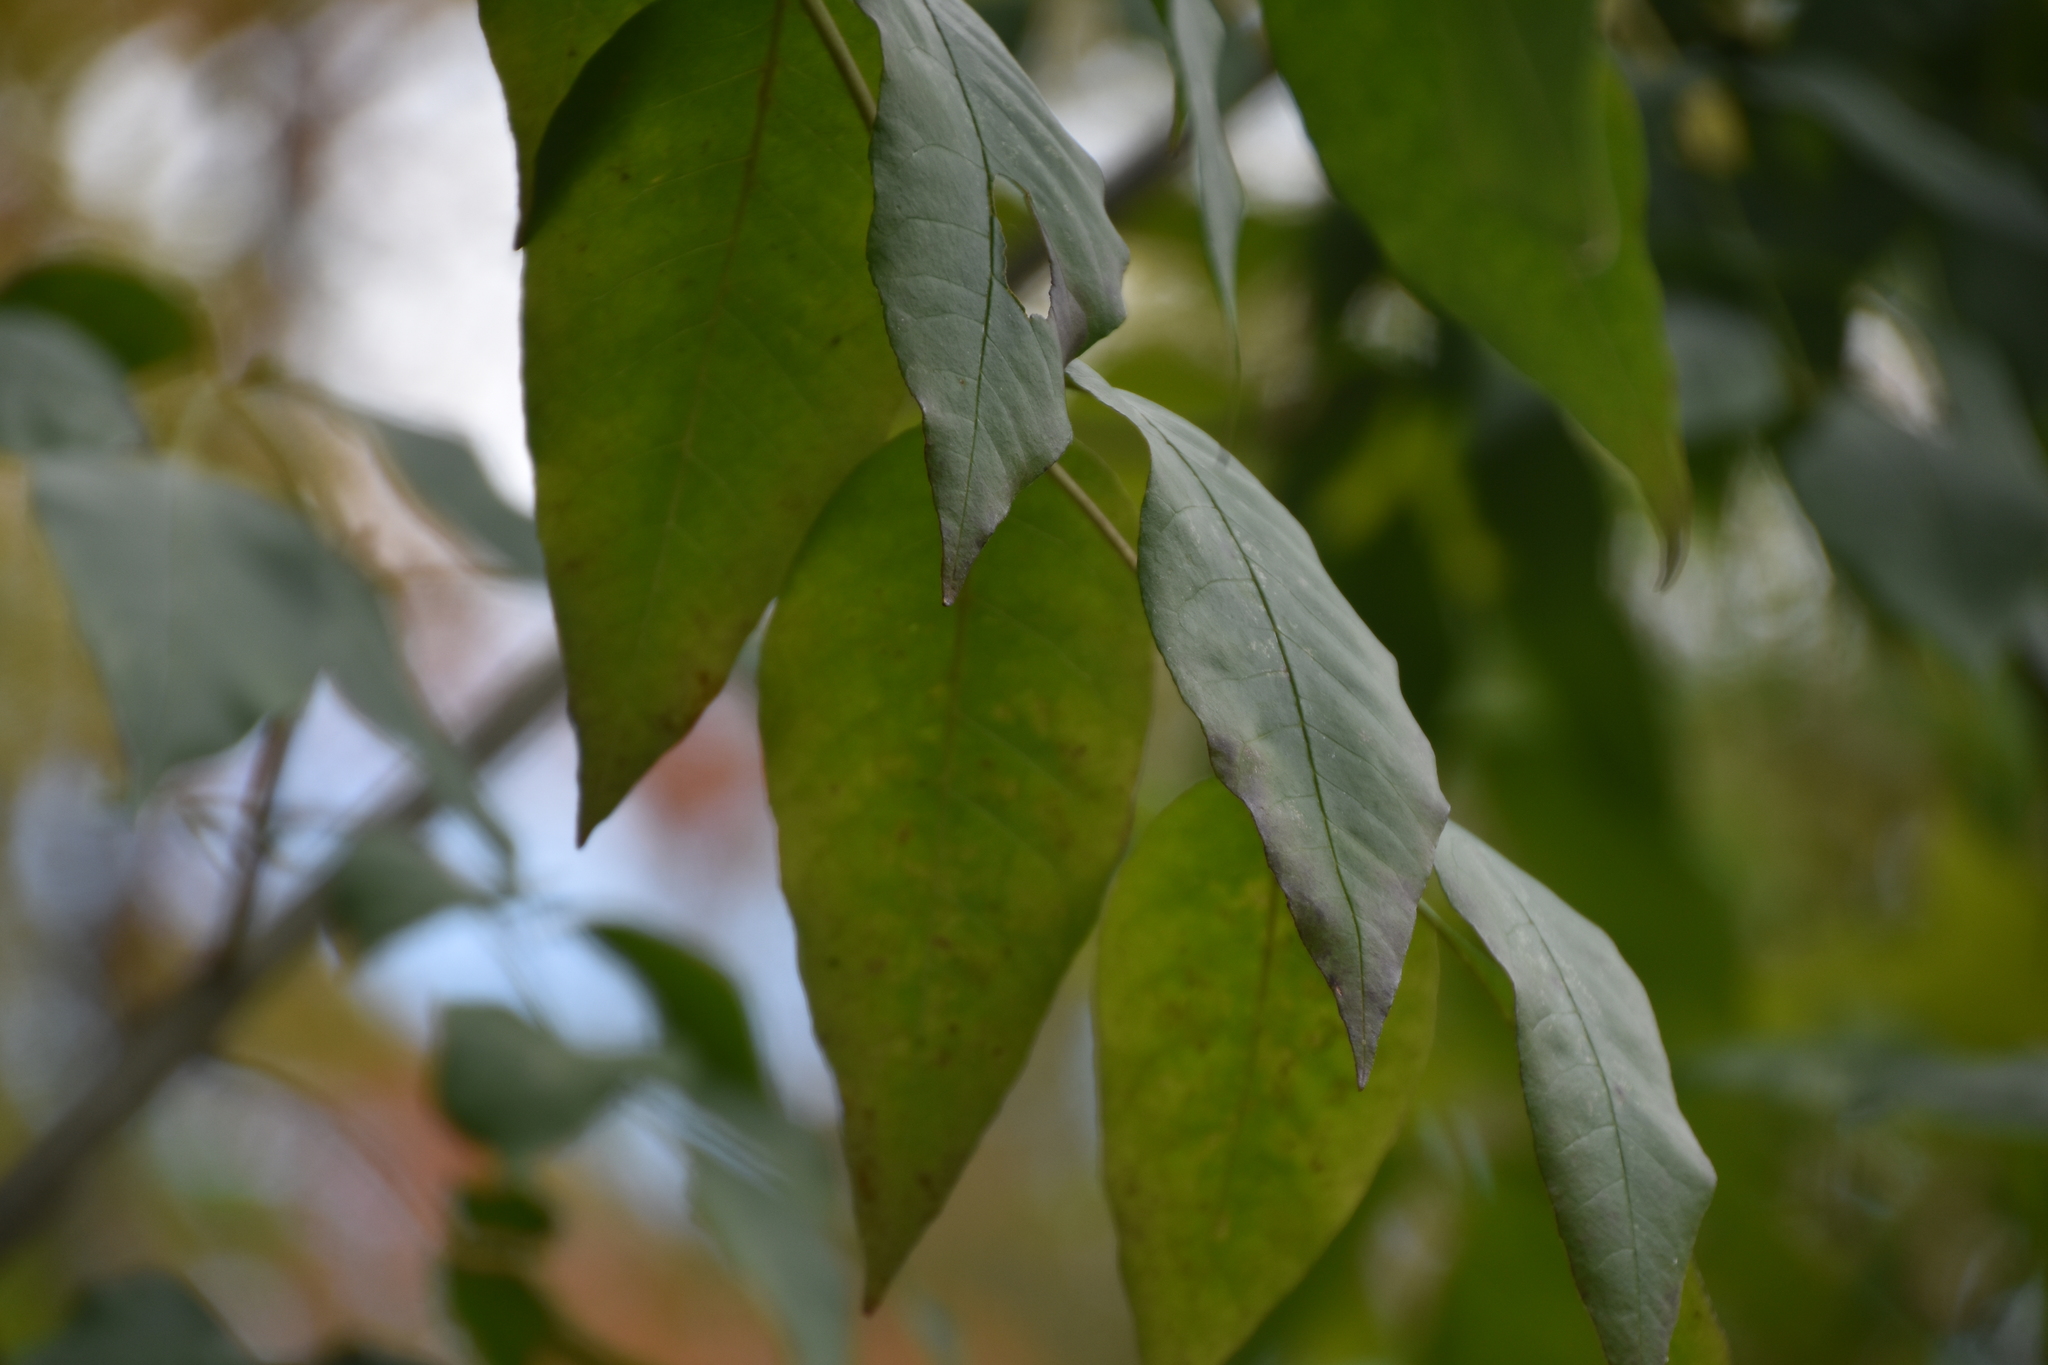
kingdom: Plantae
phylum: Tracheophyta
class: Magnoliopsida
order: Lamiales
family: Oleaceae
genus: Fraxinus
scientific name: Fraxinus americana
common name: White ash
